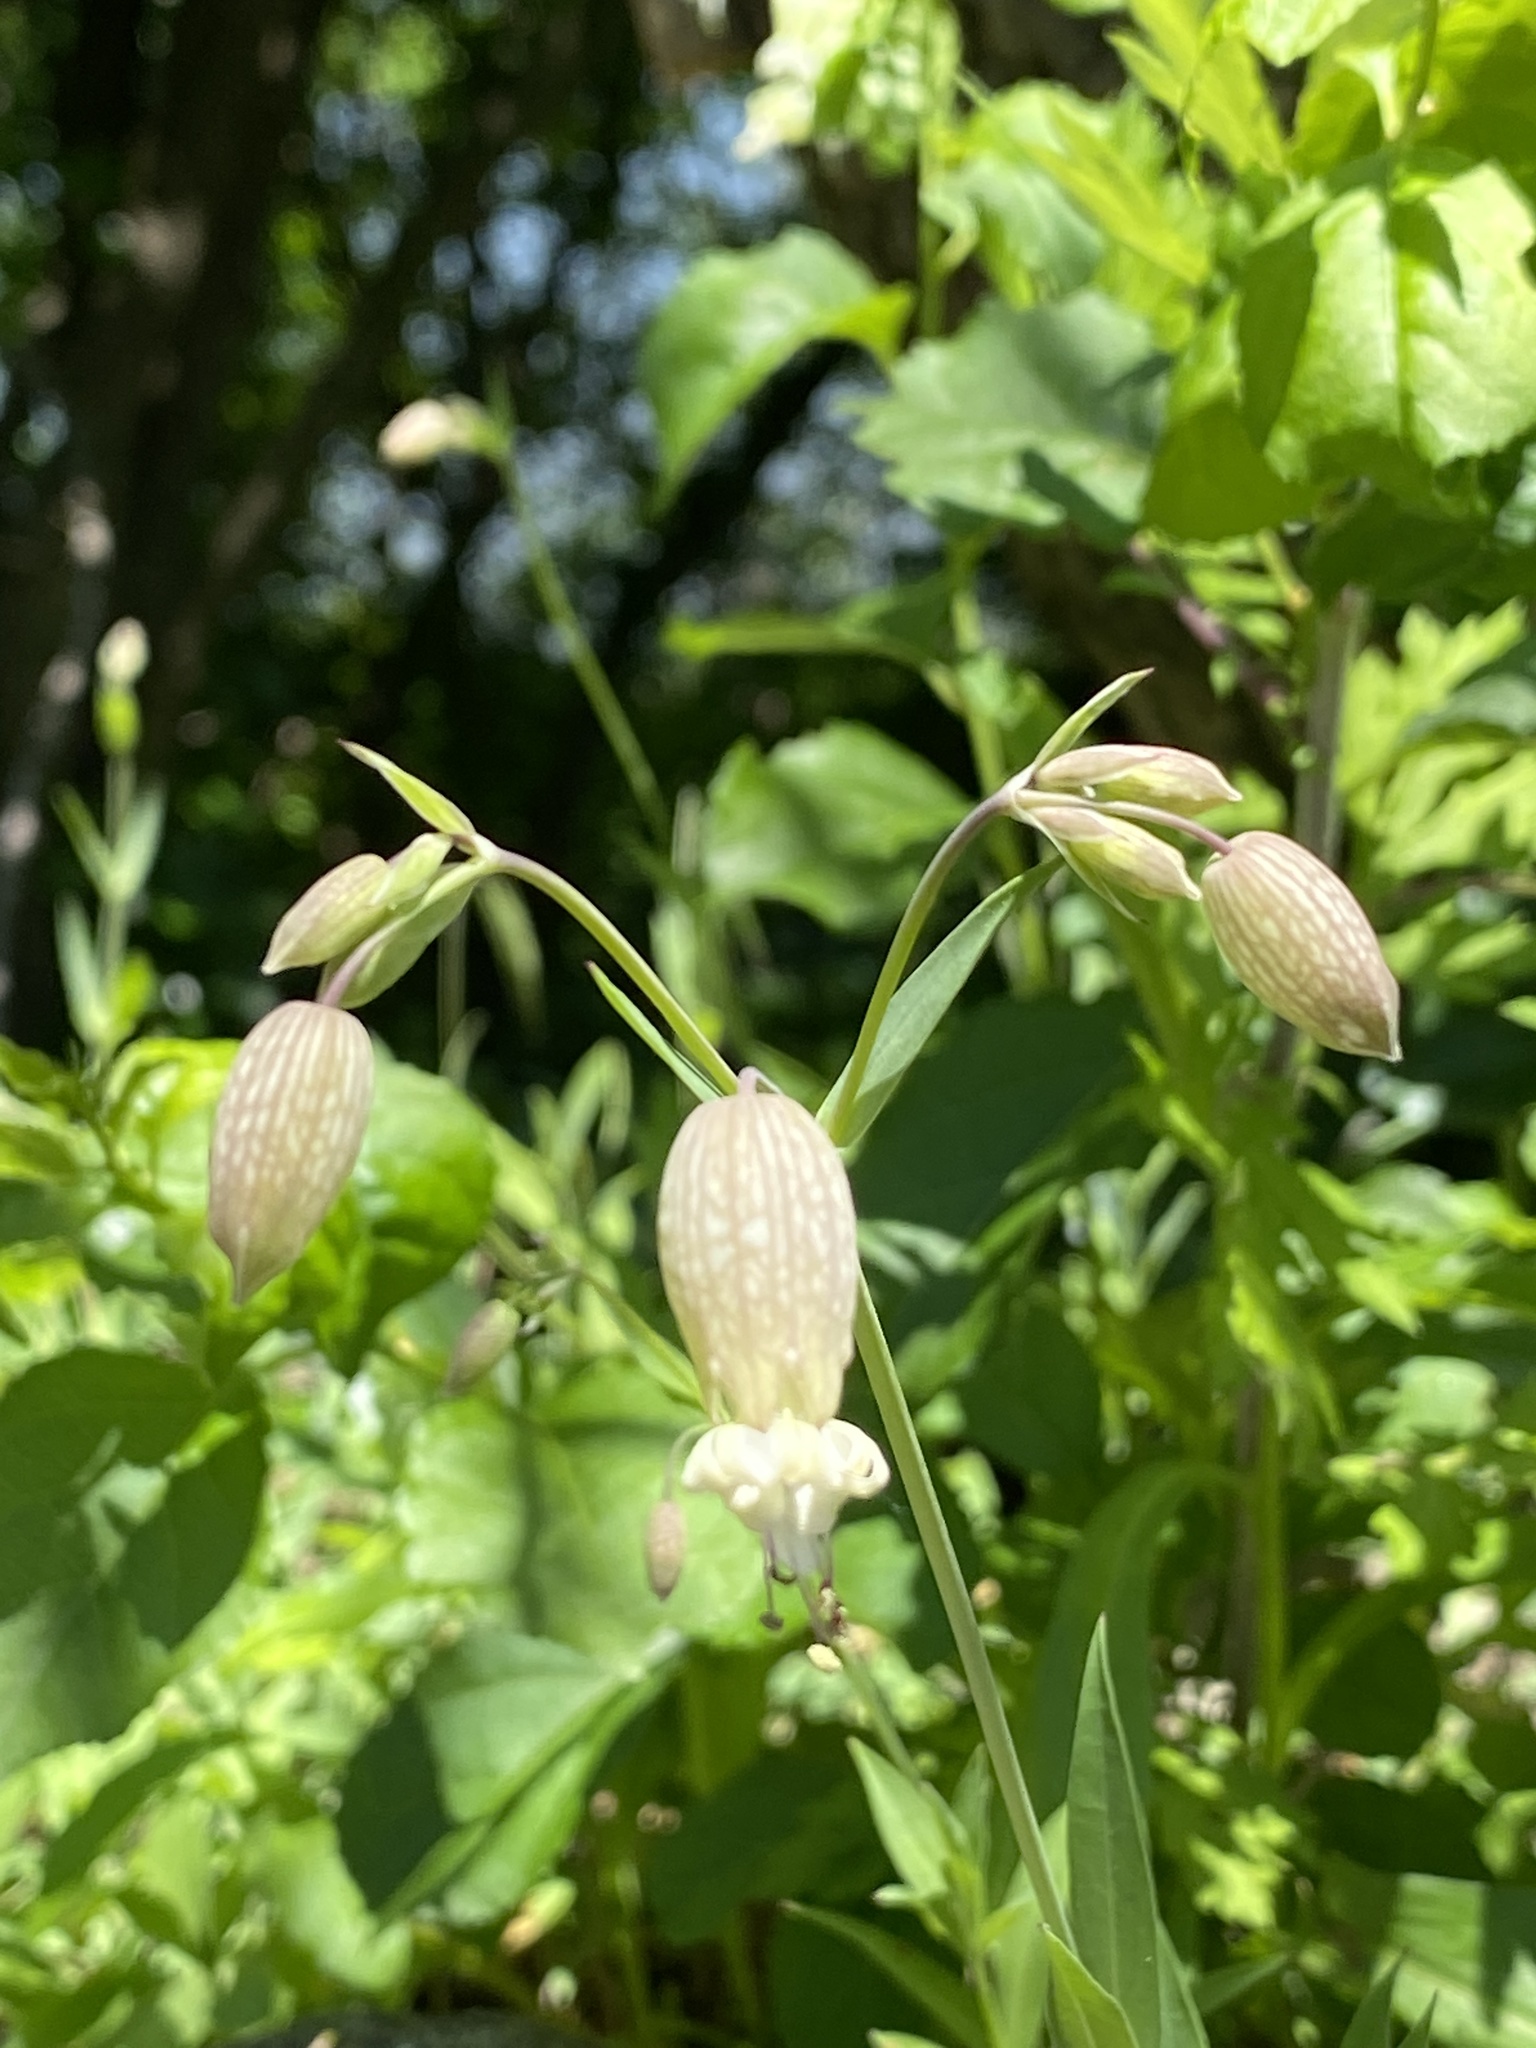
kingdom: Plantae
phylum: Tracheophyta
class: Magnoliopsida
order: Caryophyllales
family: Caryophyllaceae
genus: Silene
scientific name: Silene vulgaris
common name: Bladder campion
